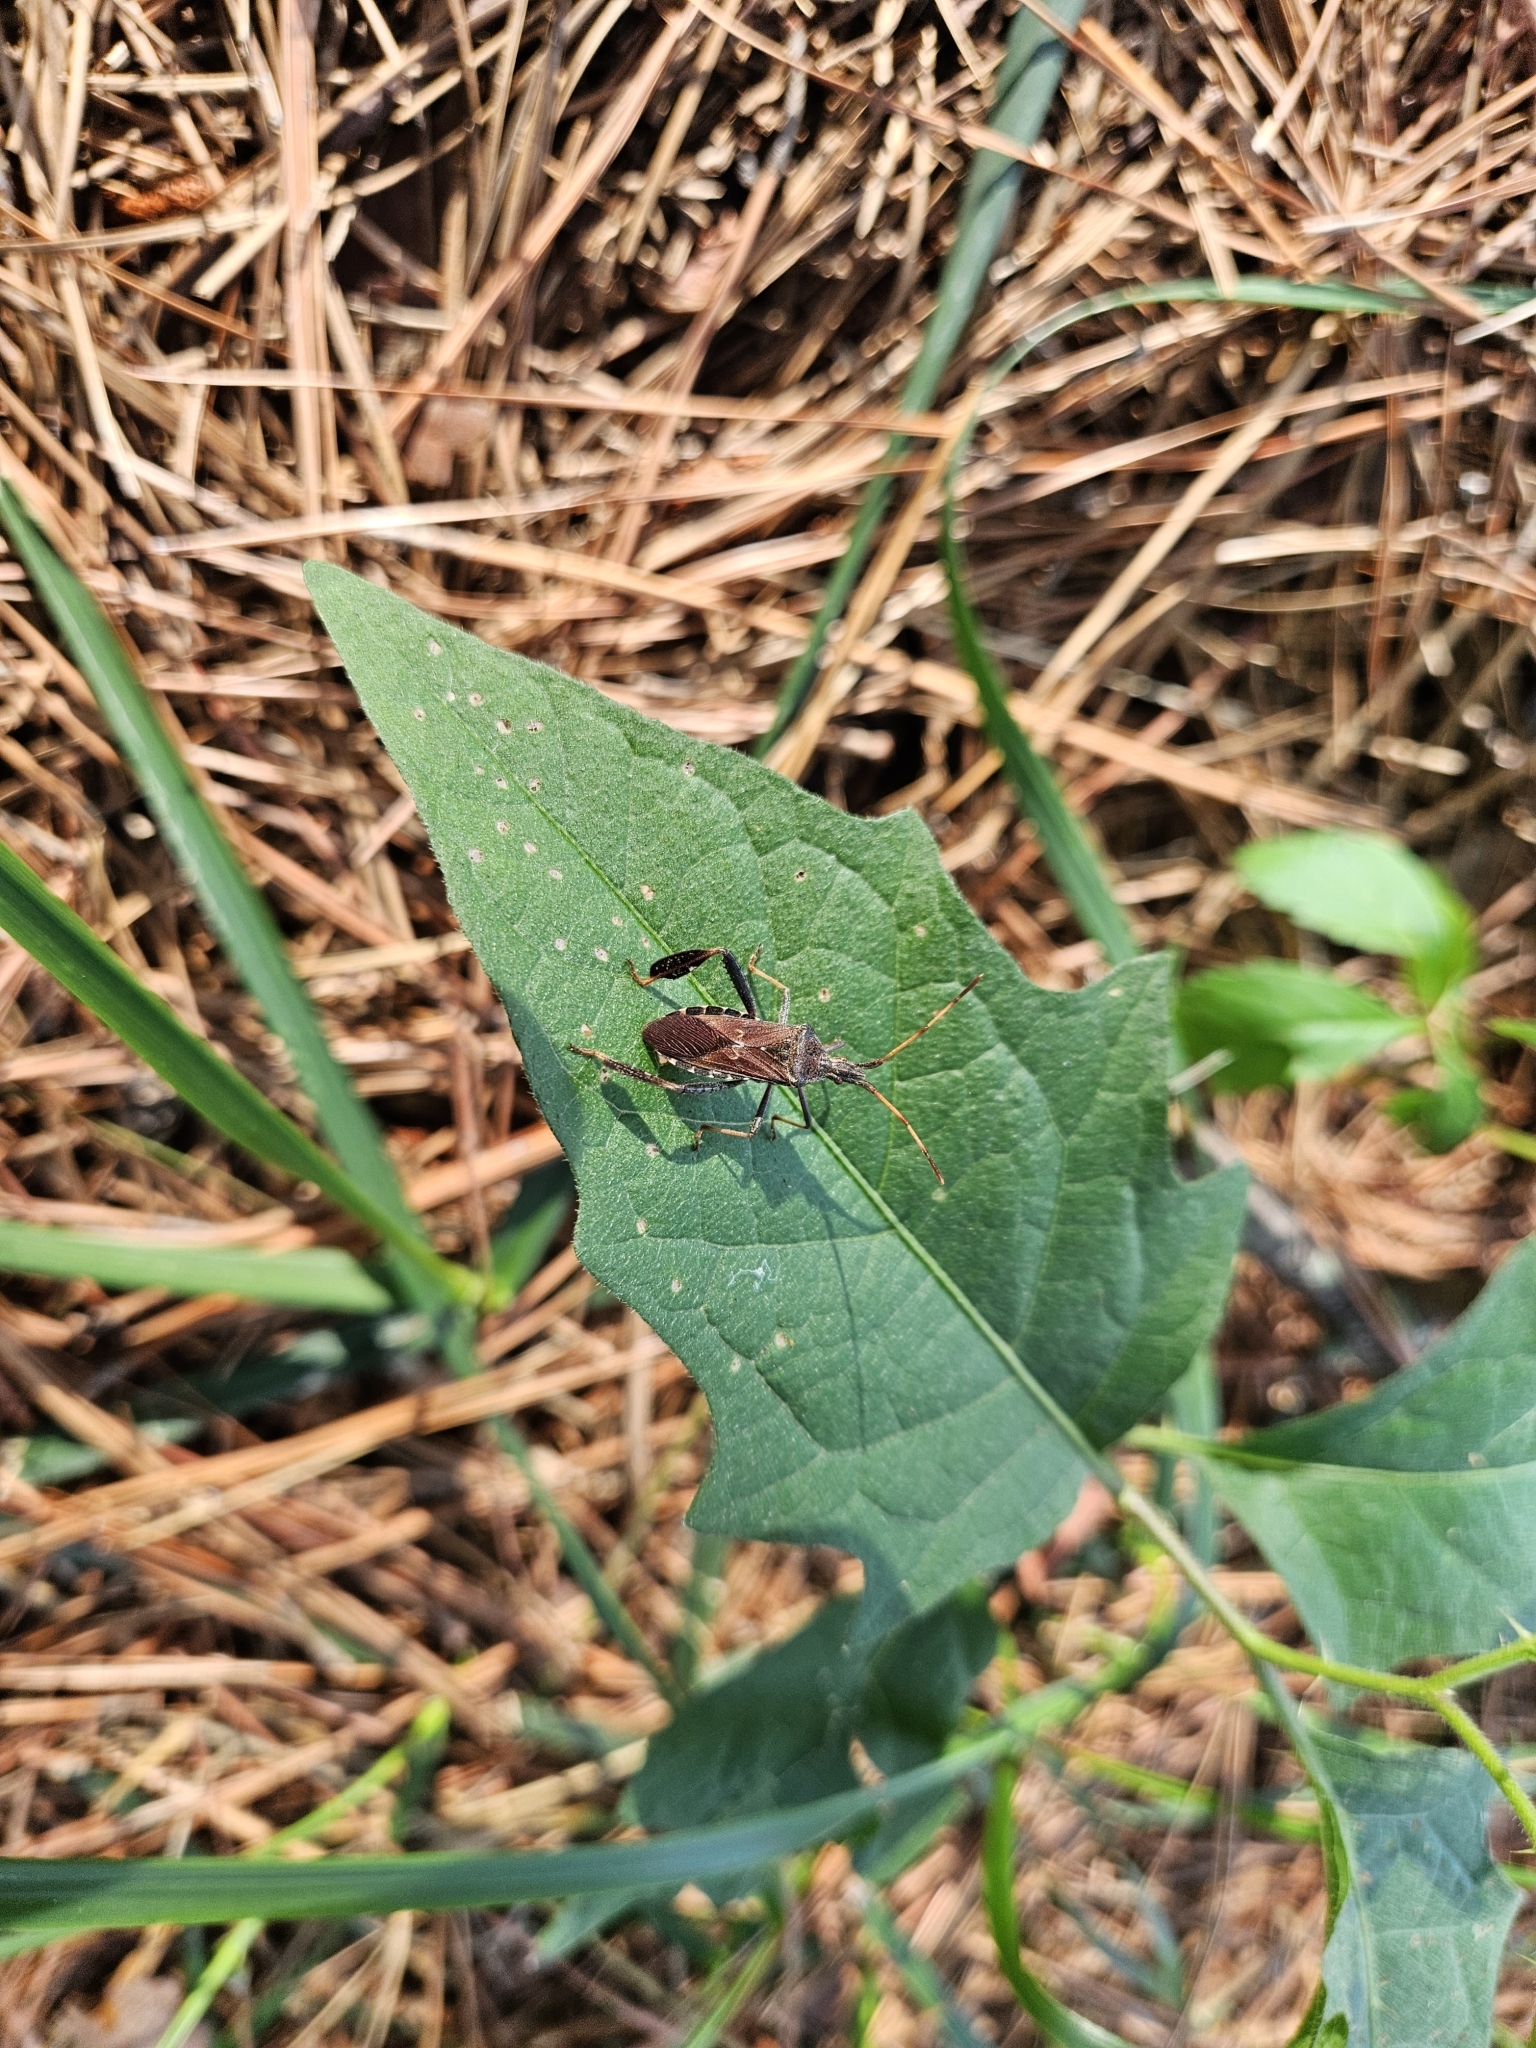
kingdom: Animalia
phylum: Arthropoda
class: Insecta
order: Hemiptera
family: Coreidae
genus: Leptoglossus
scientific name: Leptoglossus corculus
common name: Southern pine seed bug
